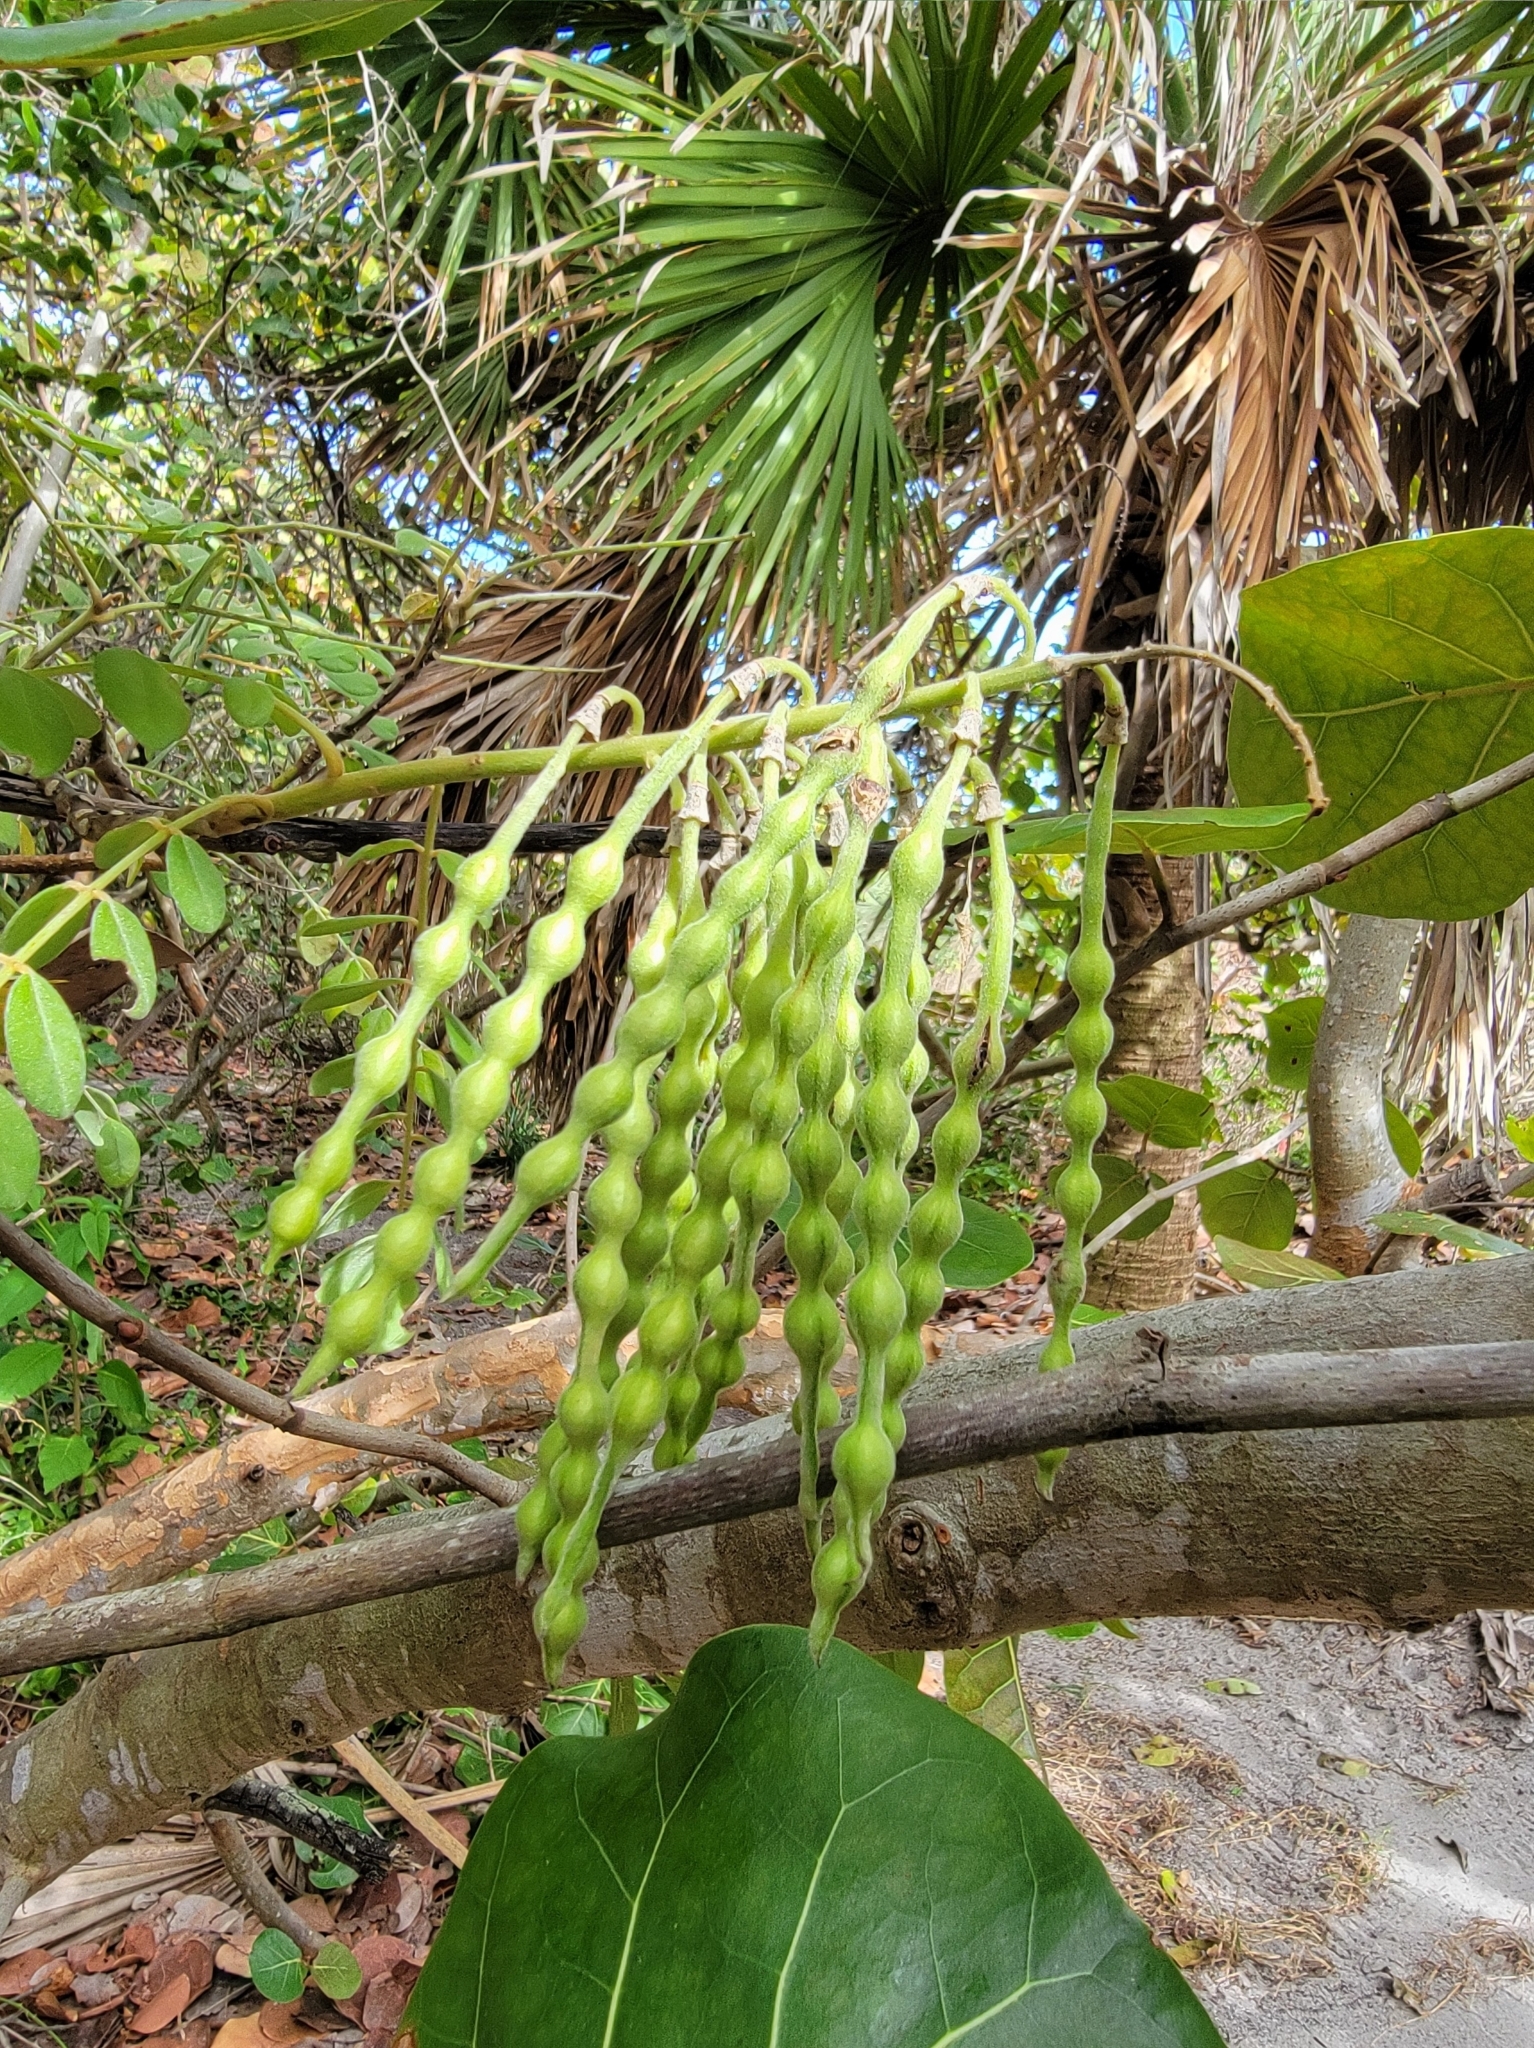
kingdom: Plantae
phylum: Tracheophyta
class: Magnoliopsida
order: Fabales
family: Fabaceae
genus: Sophora
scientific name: Sophora tomentosa
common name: Yellow necklacepod
